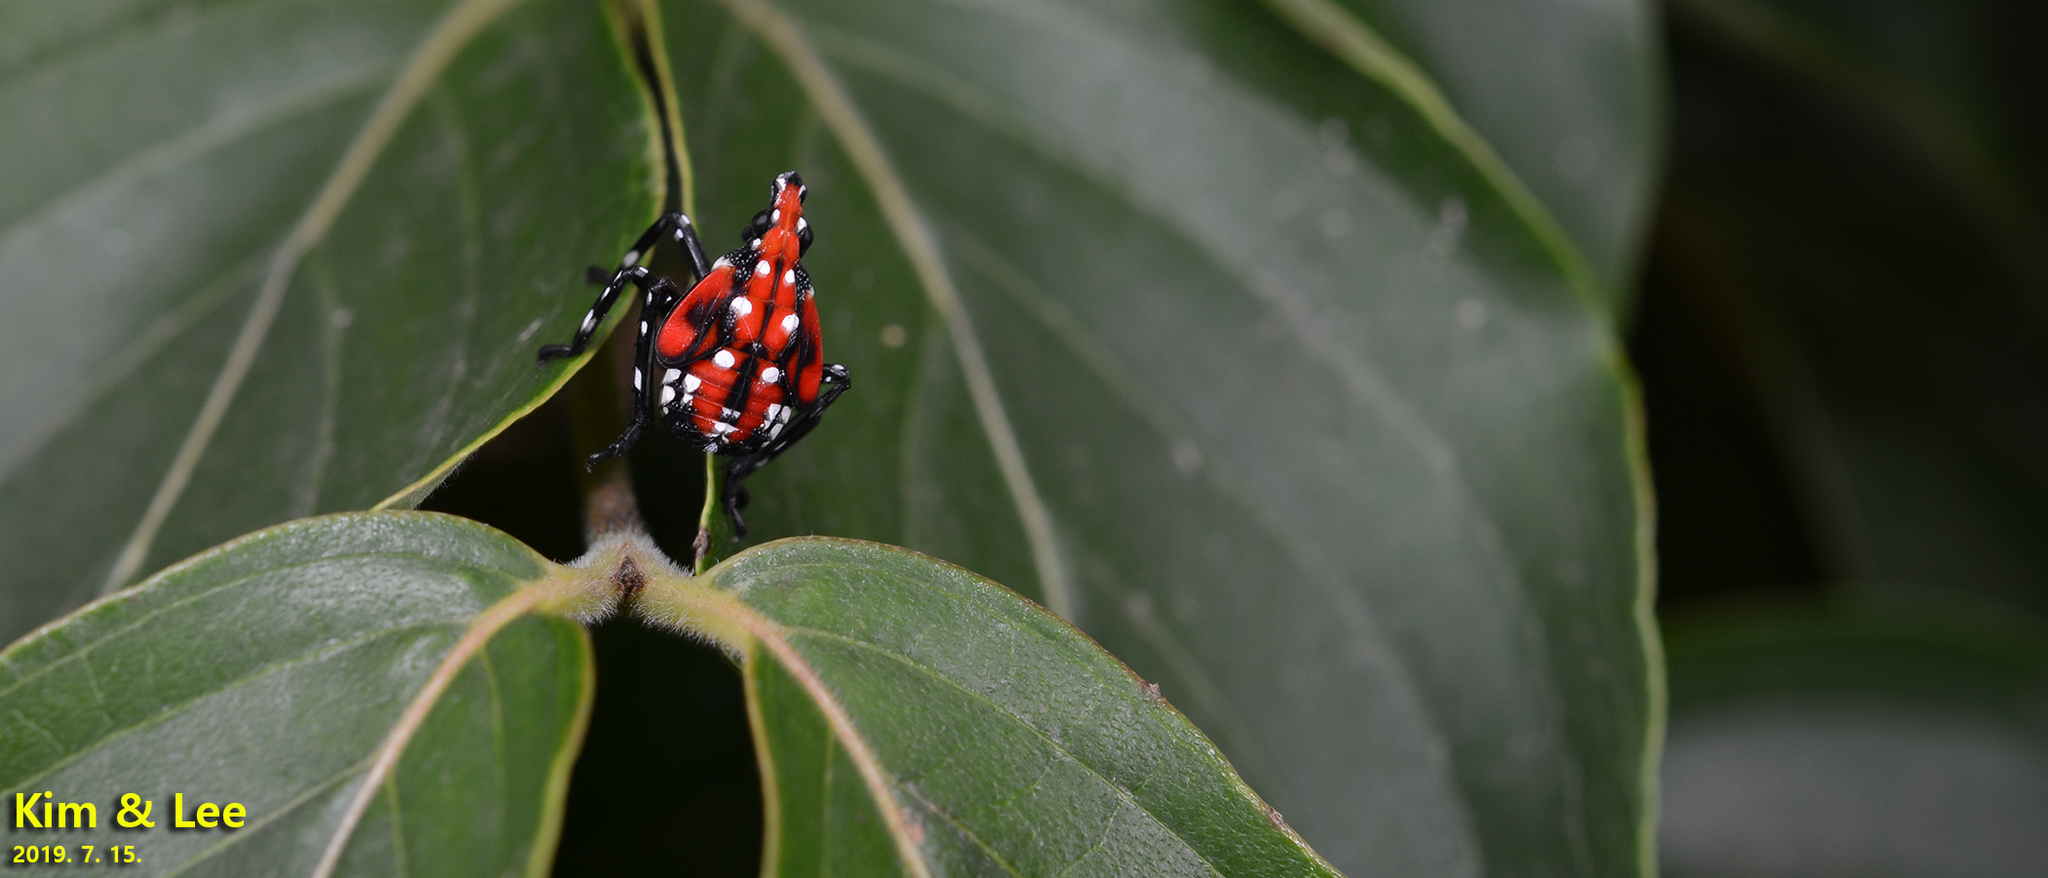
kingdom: Animalia
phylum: Arthropoda
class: Insecta
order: Hemiptera
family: Fulgoridae
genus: Lycorma
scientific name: Lycorma delicatula
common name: Spotted lanternfly
